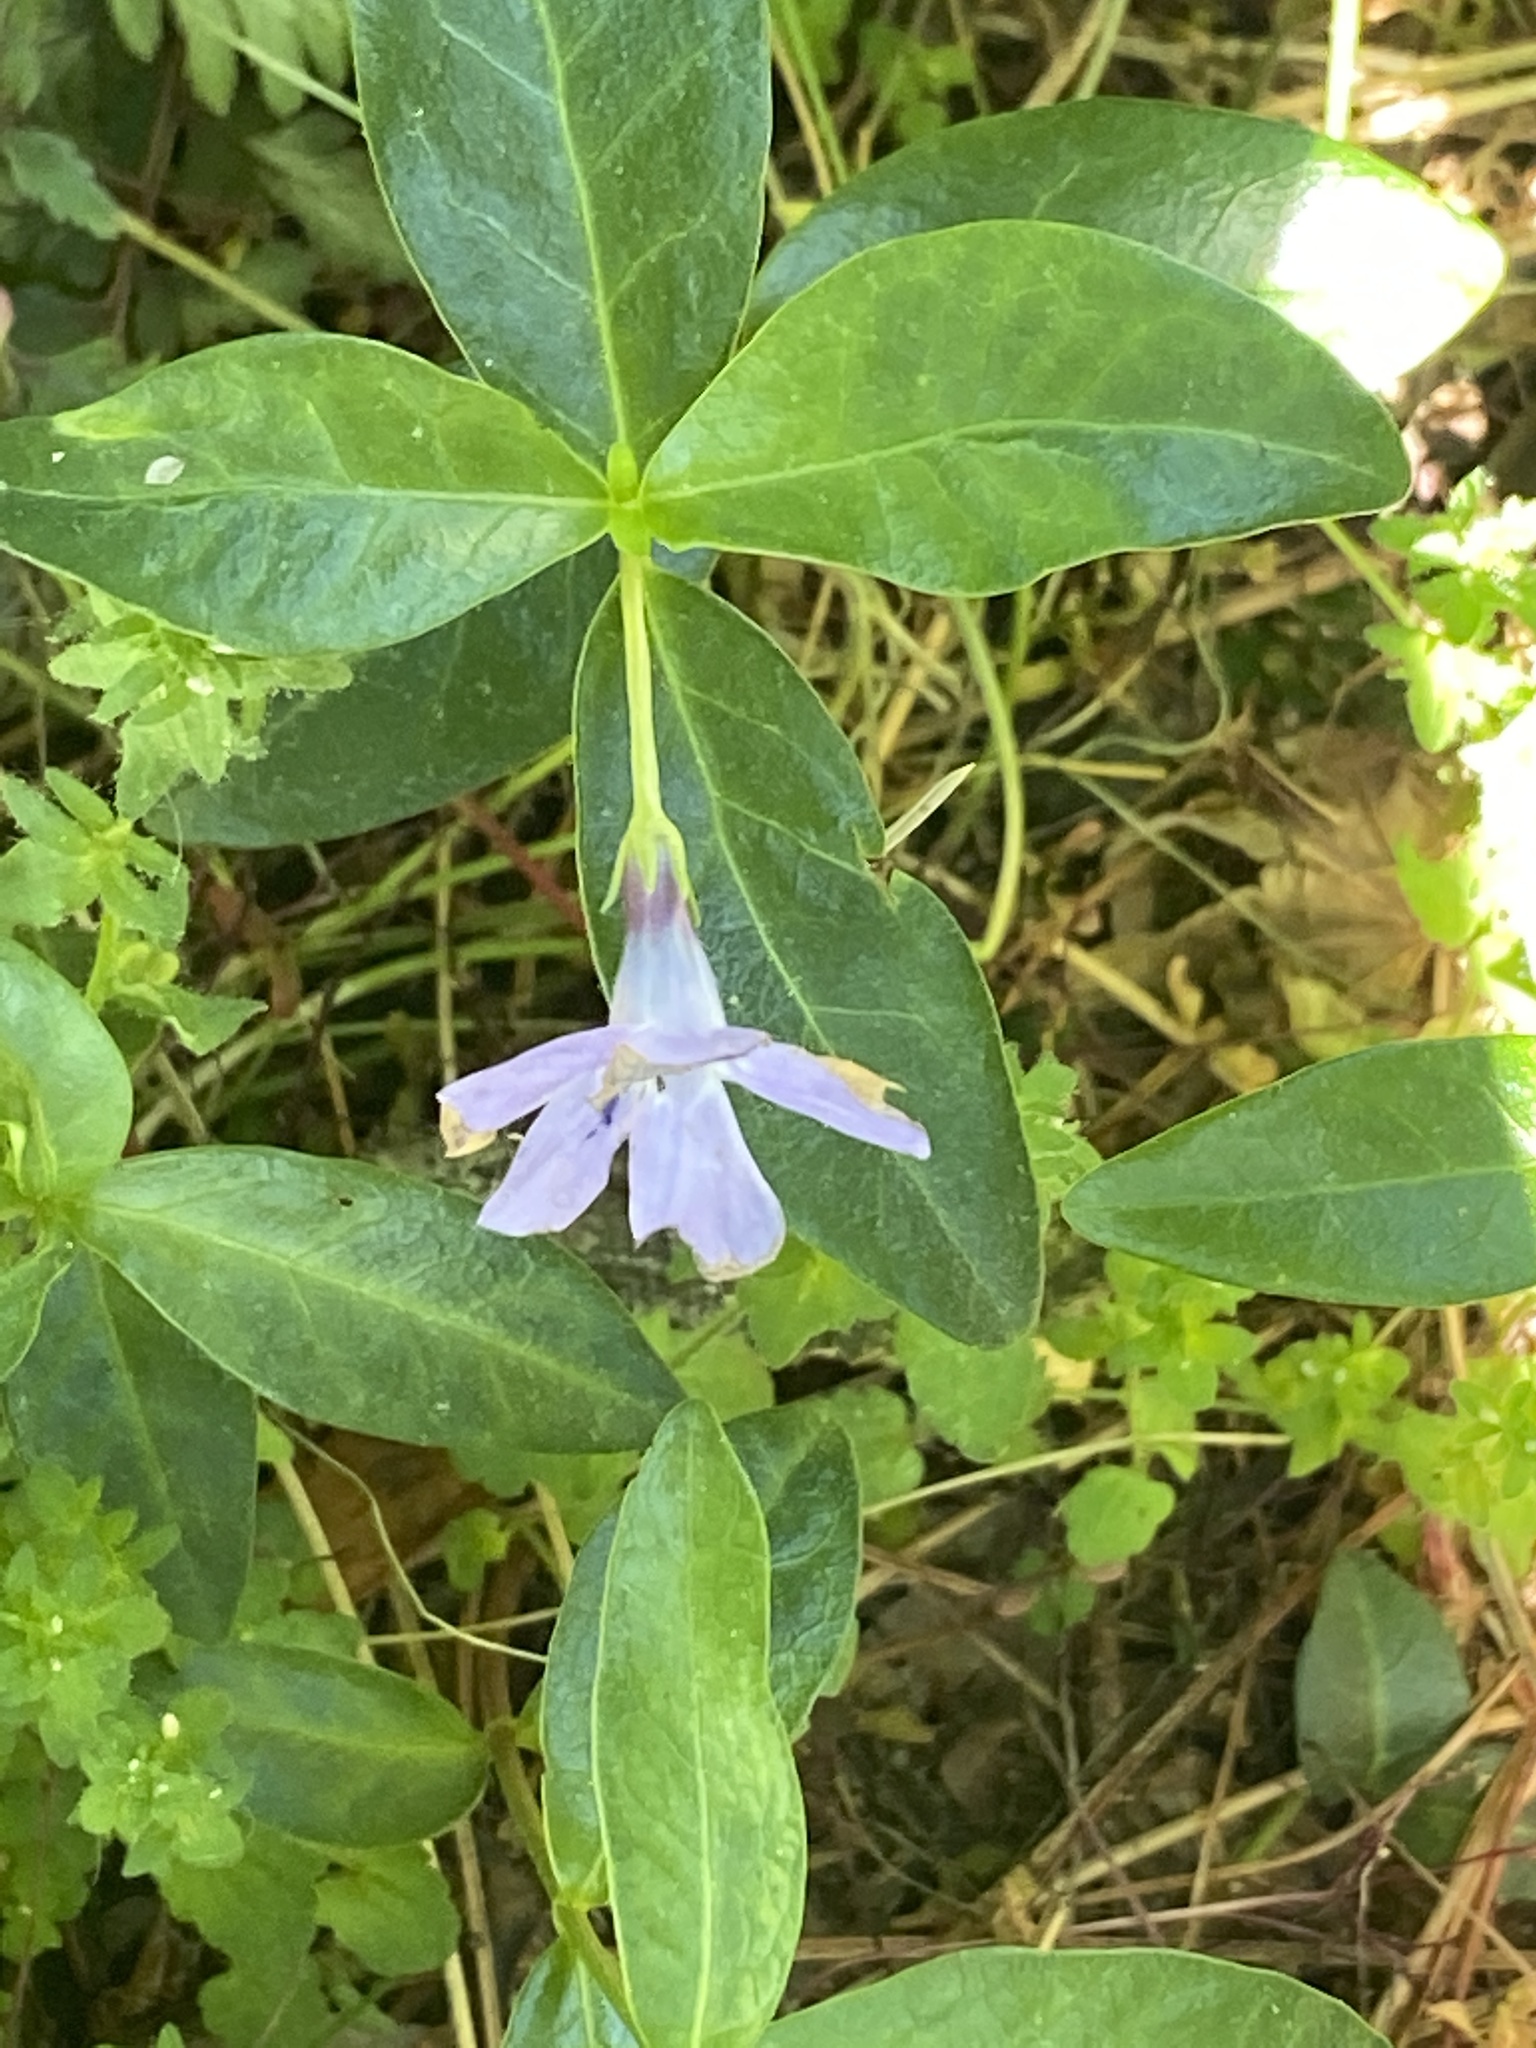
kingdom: Plantae
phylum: Tracheophyta
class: Magnoliopsida
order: Gentianales
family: Apocynaceae
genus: Vinca
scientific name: Vinca minor
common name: Lesser periwinkle
